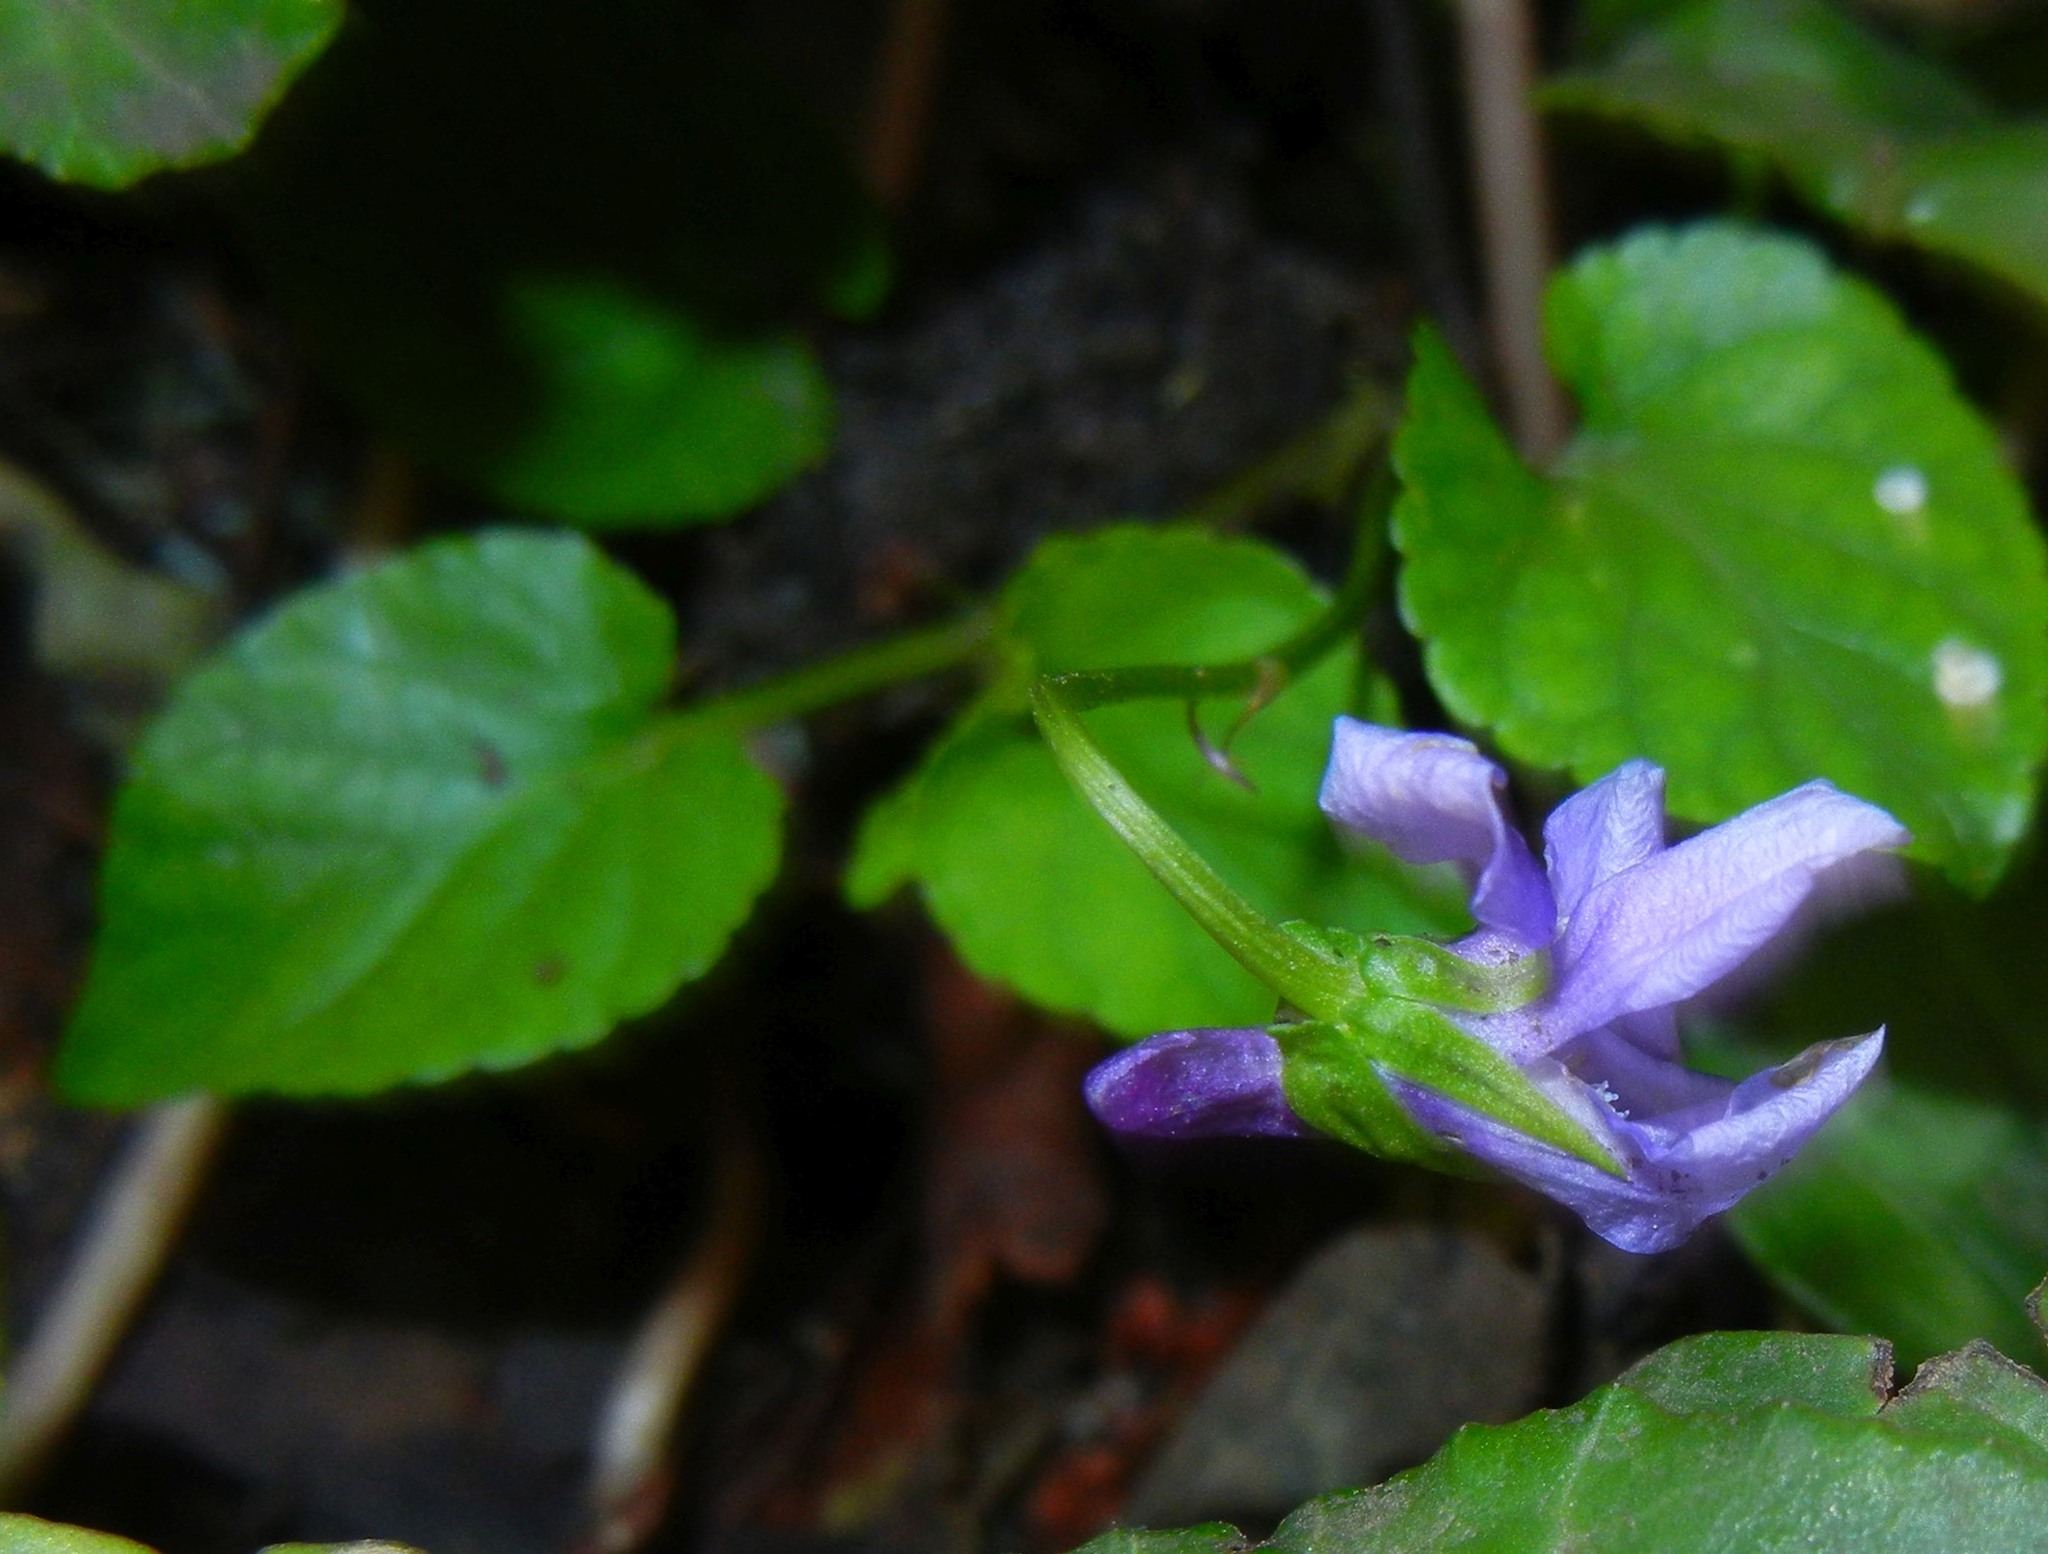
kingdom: Plantae
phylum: Tracheophyta
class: Magnoliopsida
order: Malpighiales
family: Violaceae
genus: Viola
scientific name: Viola reichenbachiana
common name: Early dog-violet
